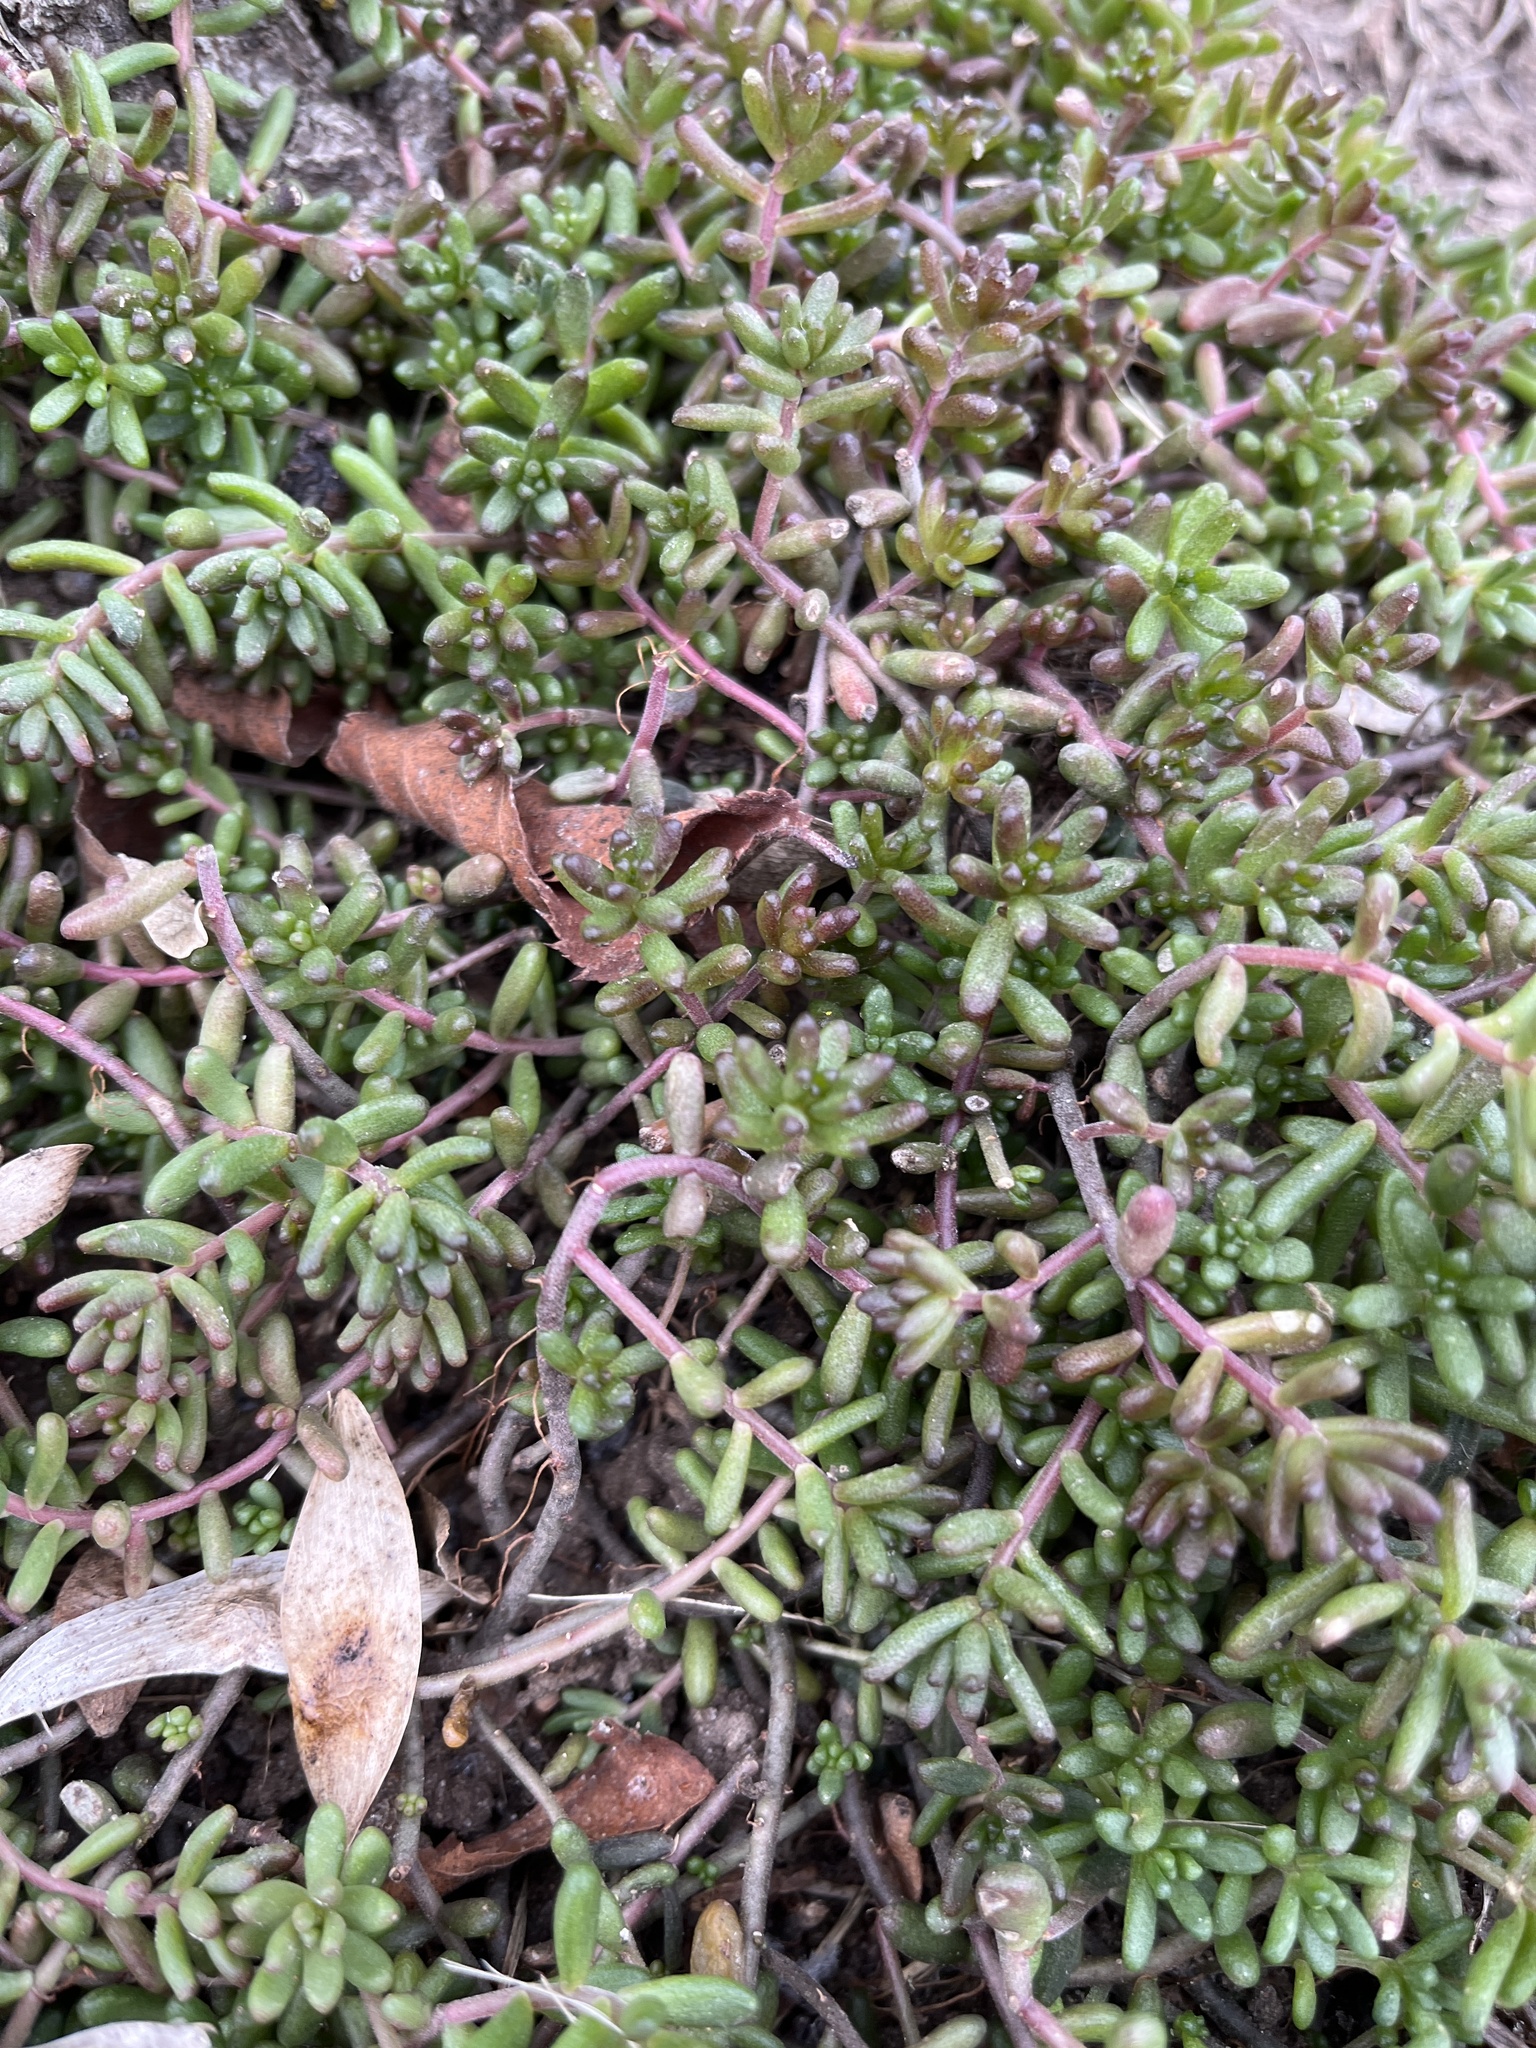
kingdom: Plantae
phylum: Tracheophyta
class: Magnoliopsida
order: Saxifragales
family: Crassulaceae
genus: Sedum
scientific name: Sedum album
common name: White stonecrop
